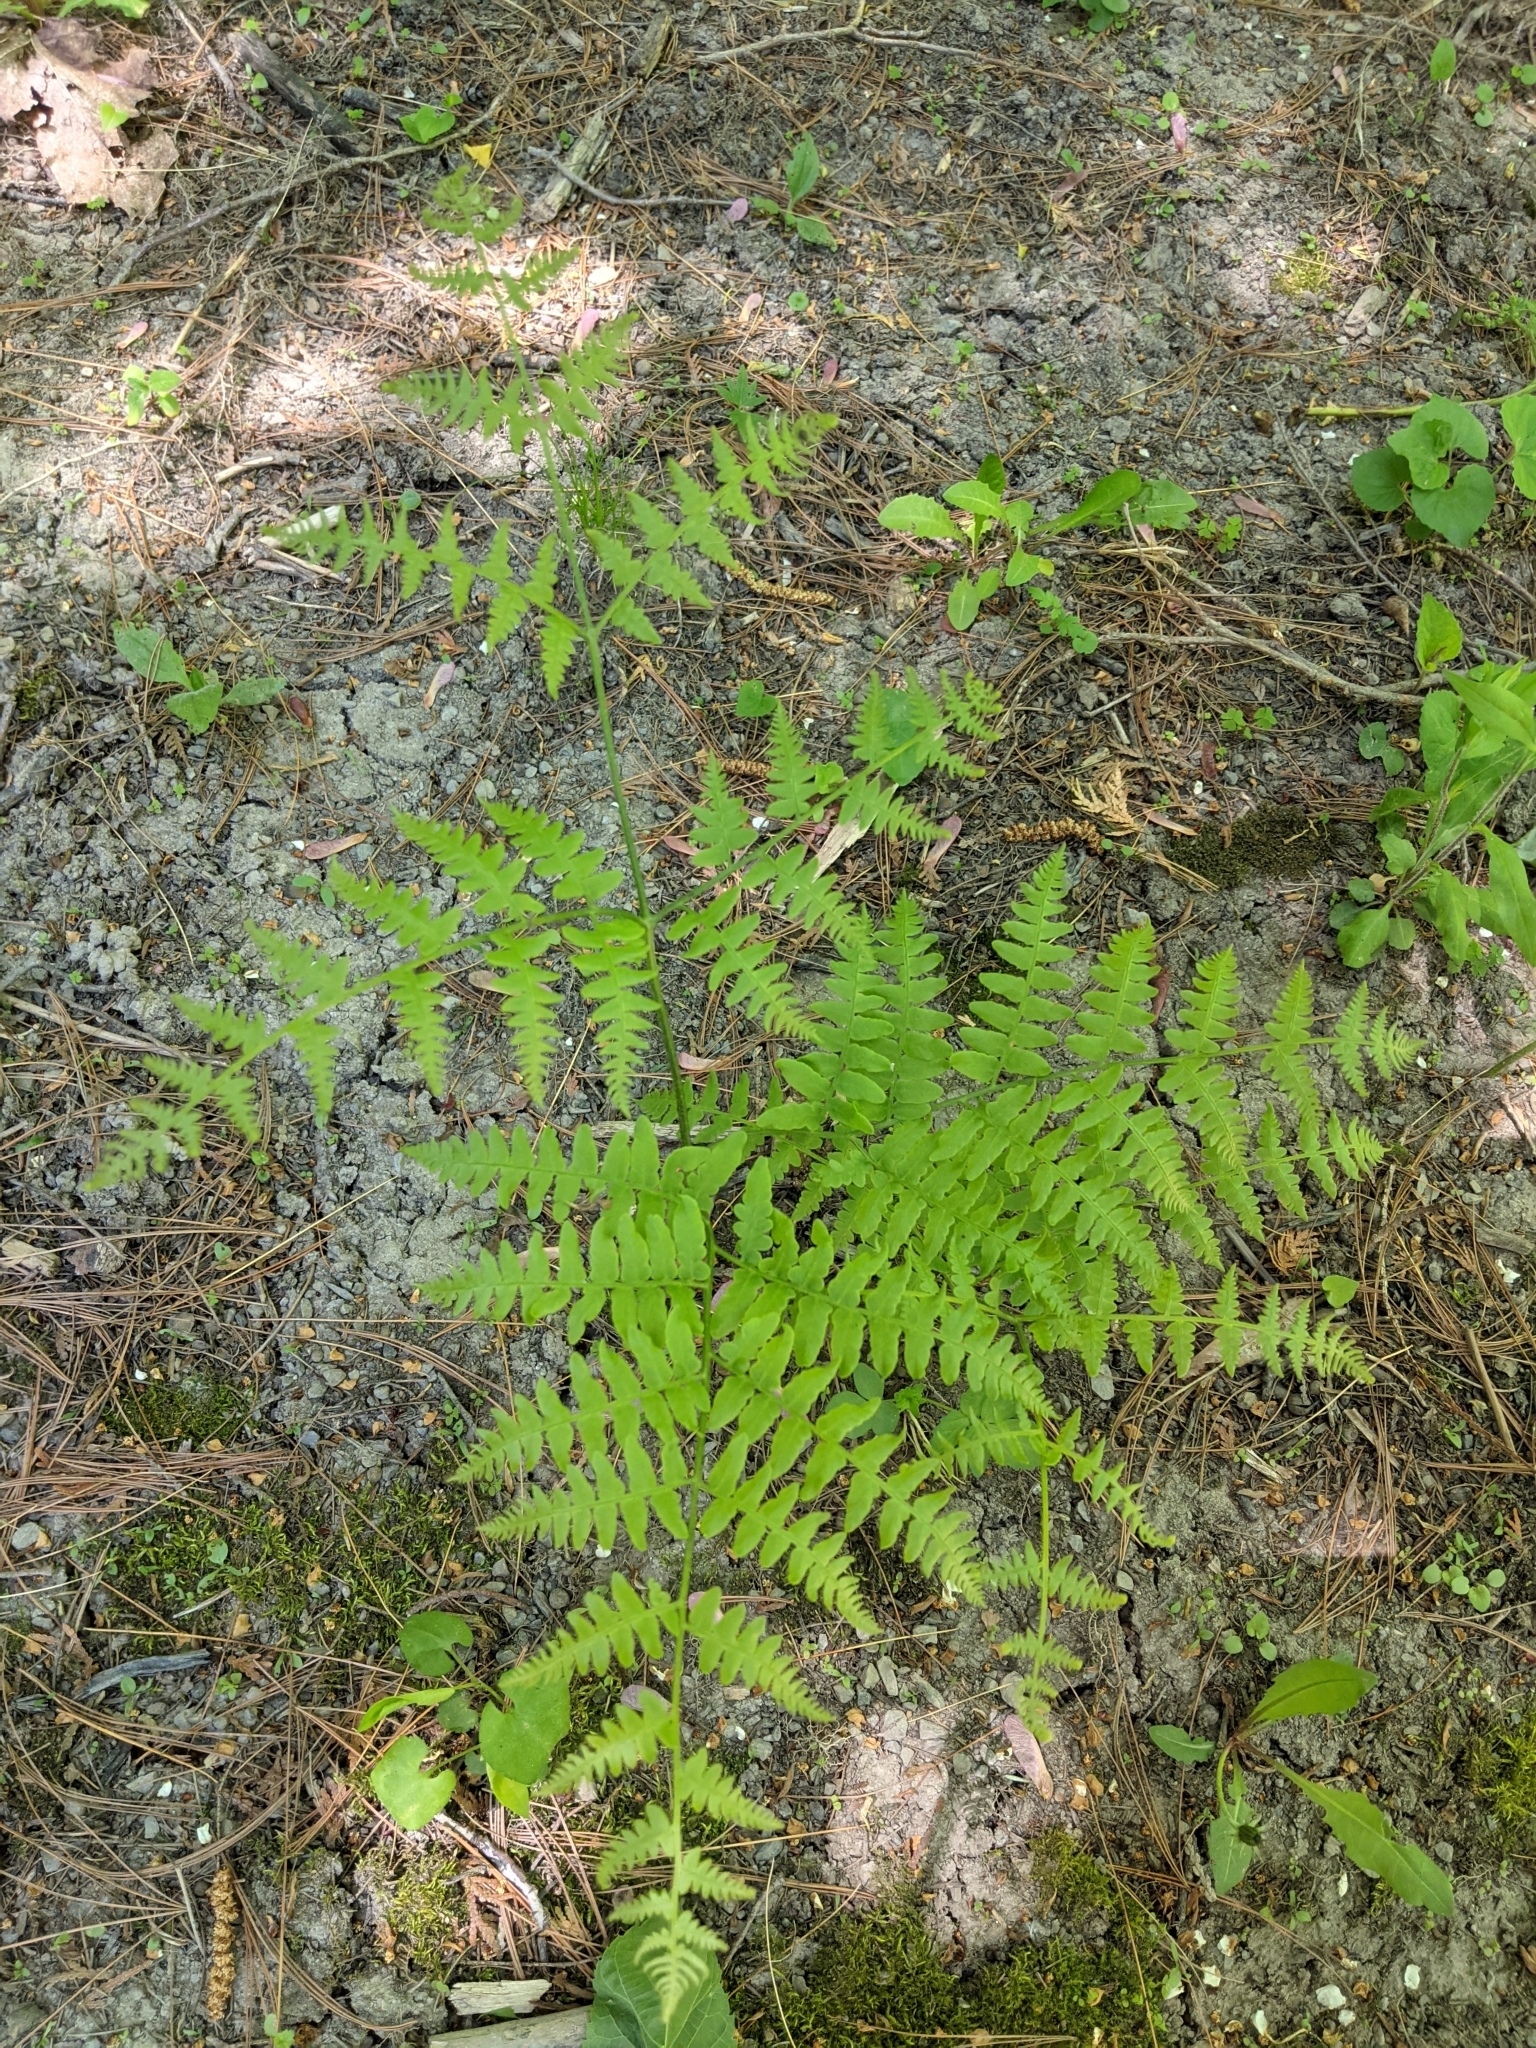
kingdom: Plantae
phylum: Tracheophyta
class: Polypodiopsida
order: Polypodiales
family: Dennstaedtiaceae
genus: Pteridium
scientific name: Pteridium aquilinum
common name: Bracken
